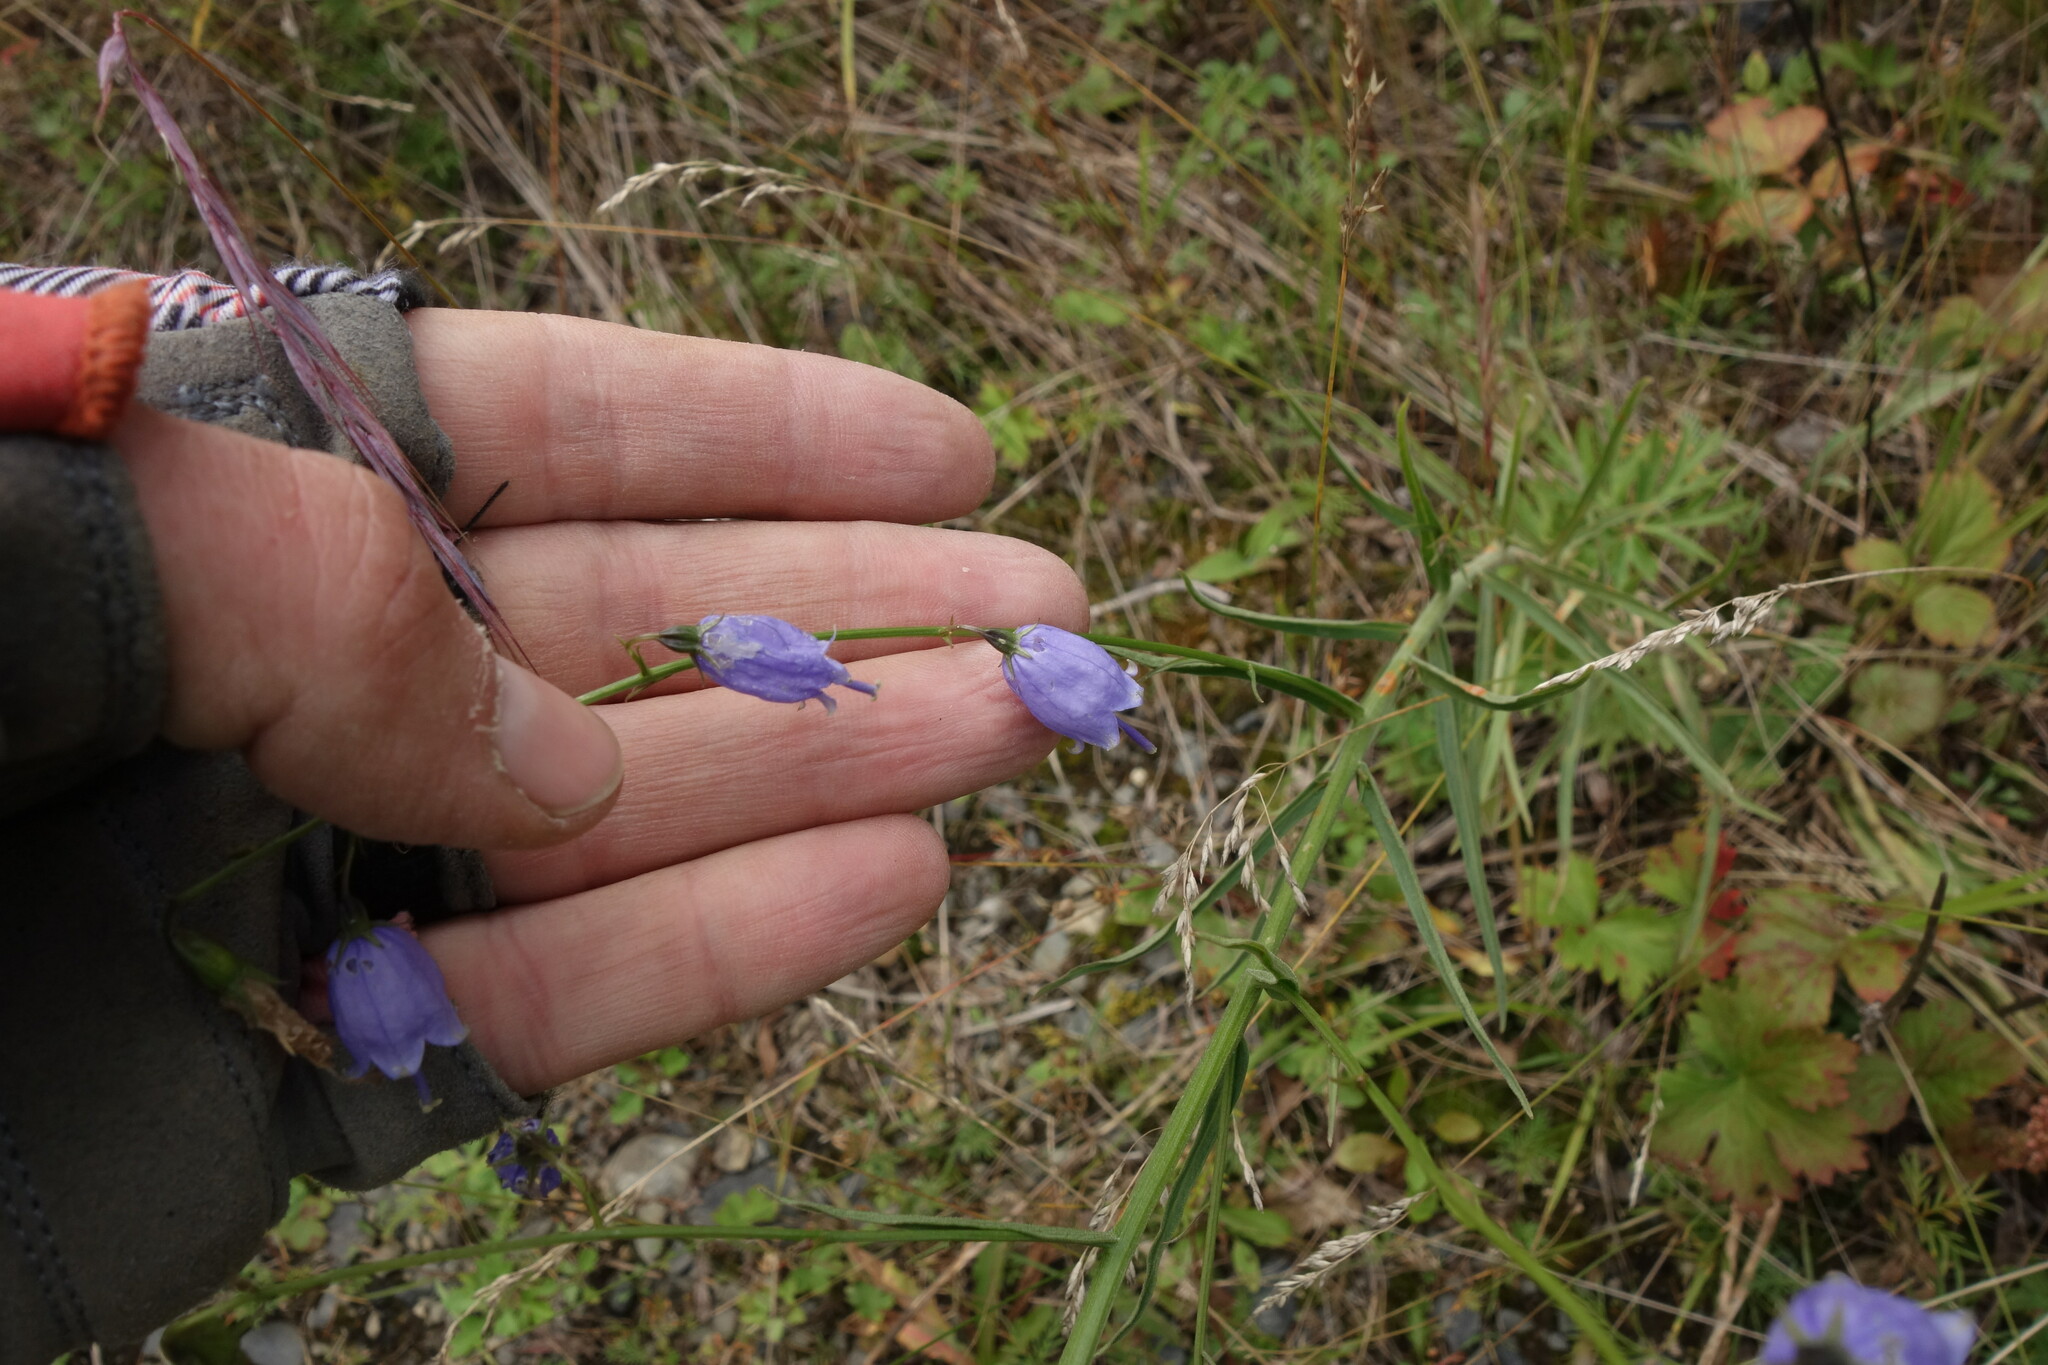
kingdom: Plantae
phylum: Tracheophyta
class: Magnoliopsida
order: Asterales
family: Campanulaceae
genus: Adenophora
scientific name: Adenophora stenanthina
